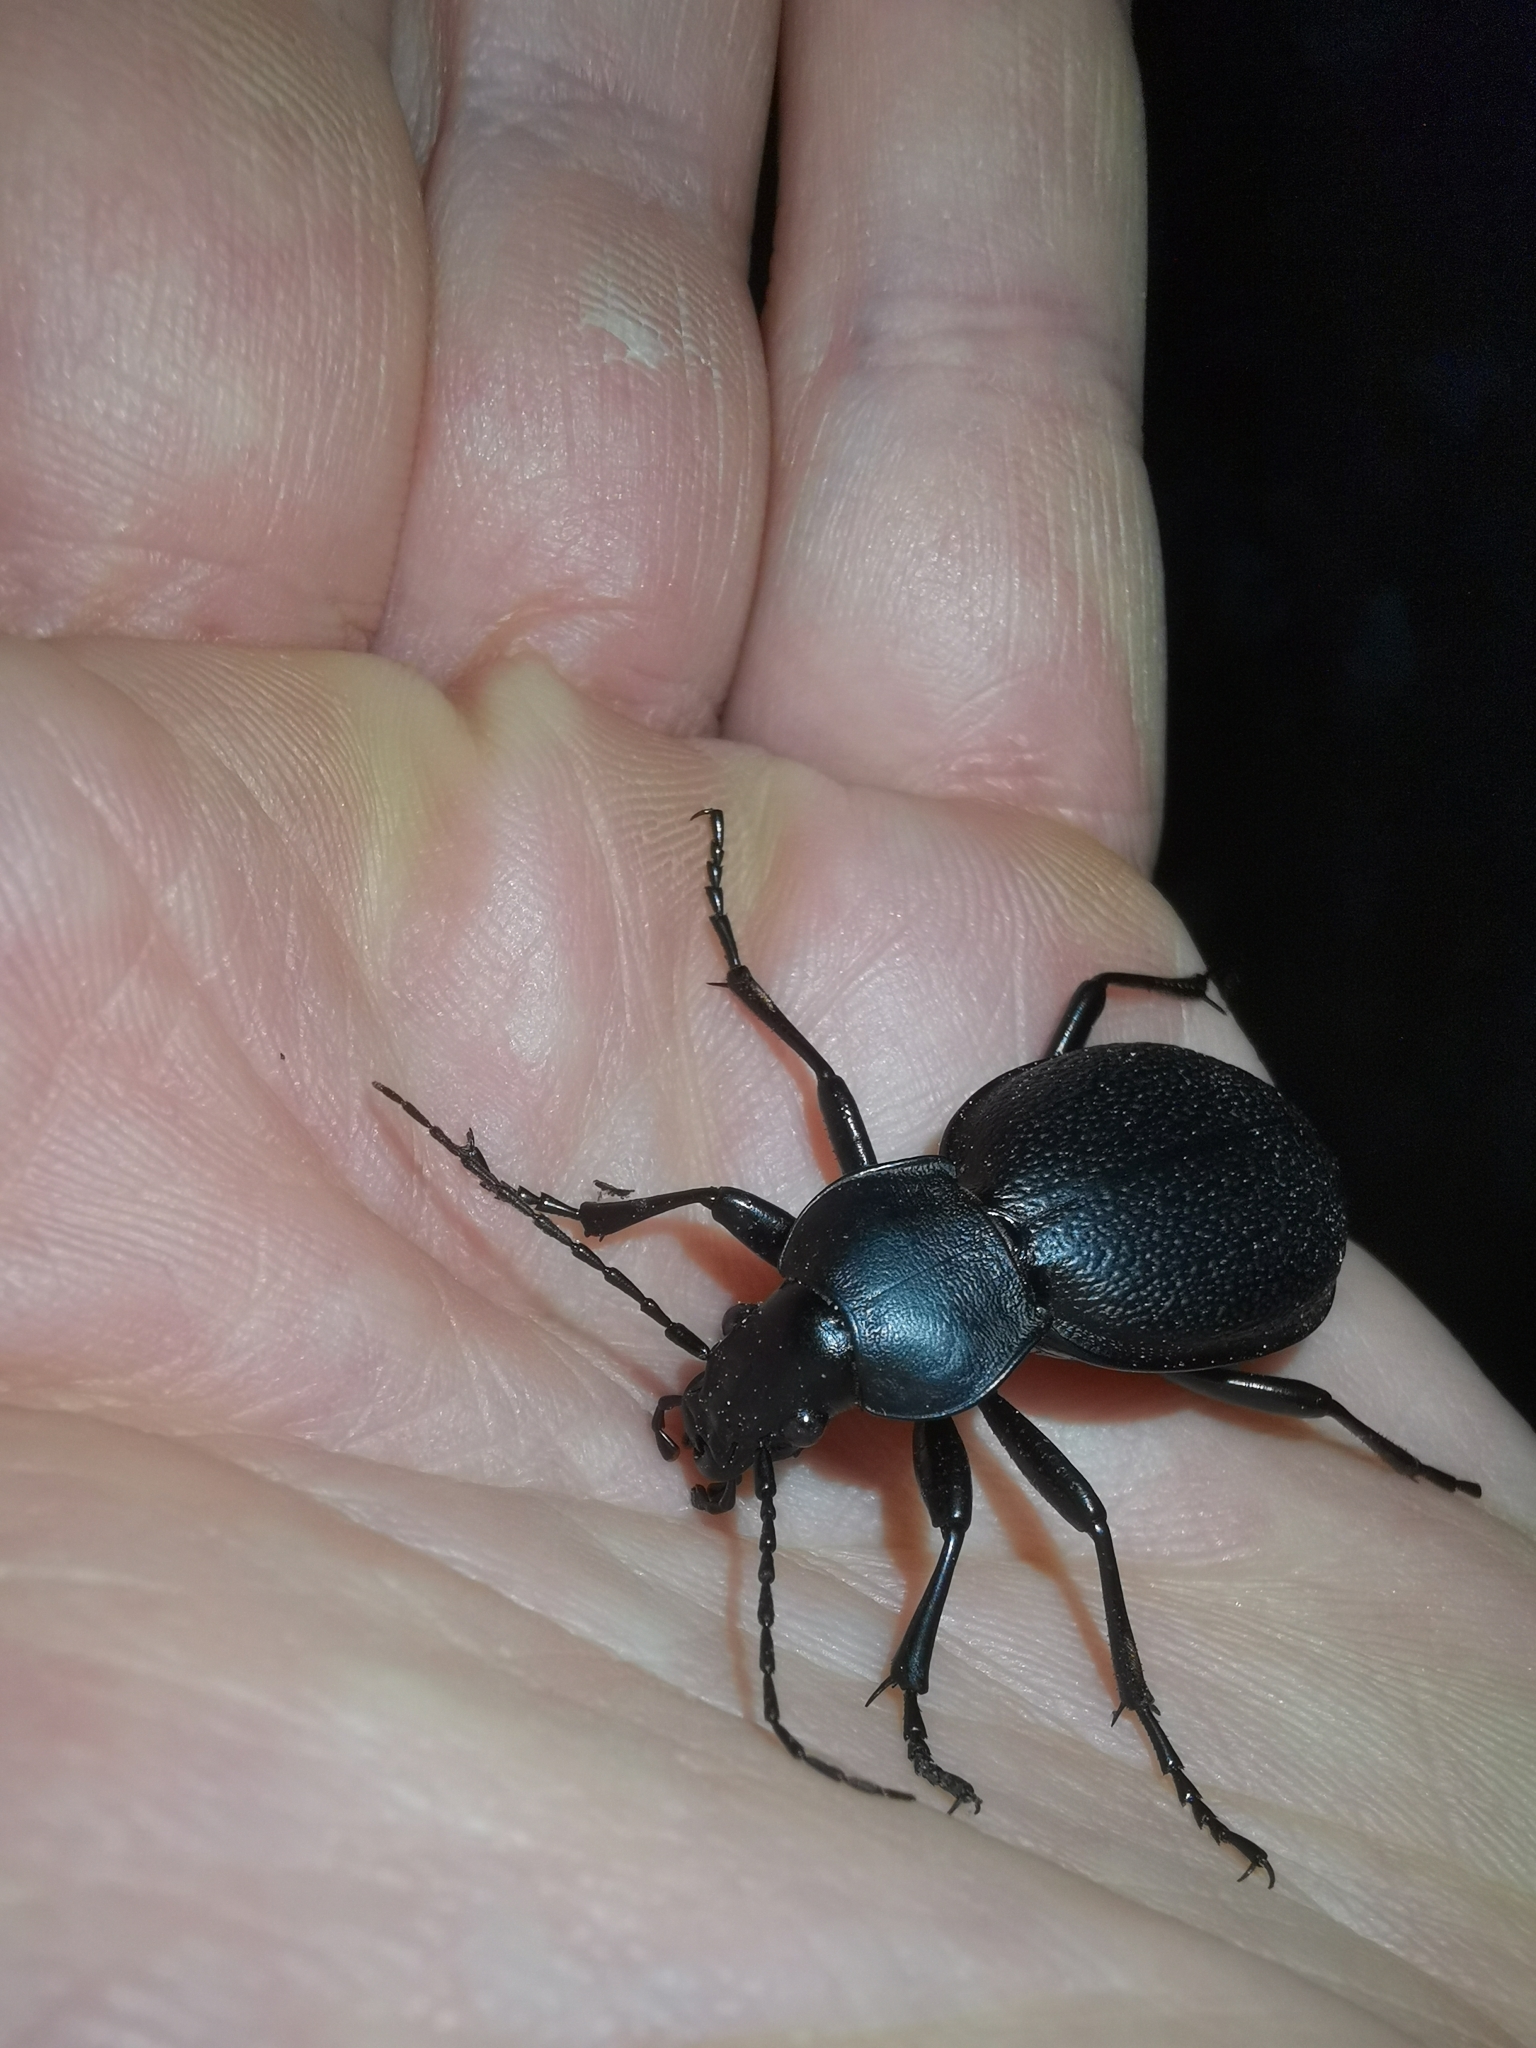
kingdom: Animalia
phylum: Arthropoda
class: Insecta
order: Coleoptera
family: Carabidae
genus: Carabus
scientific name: Carabus coriaceus
